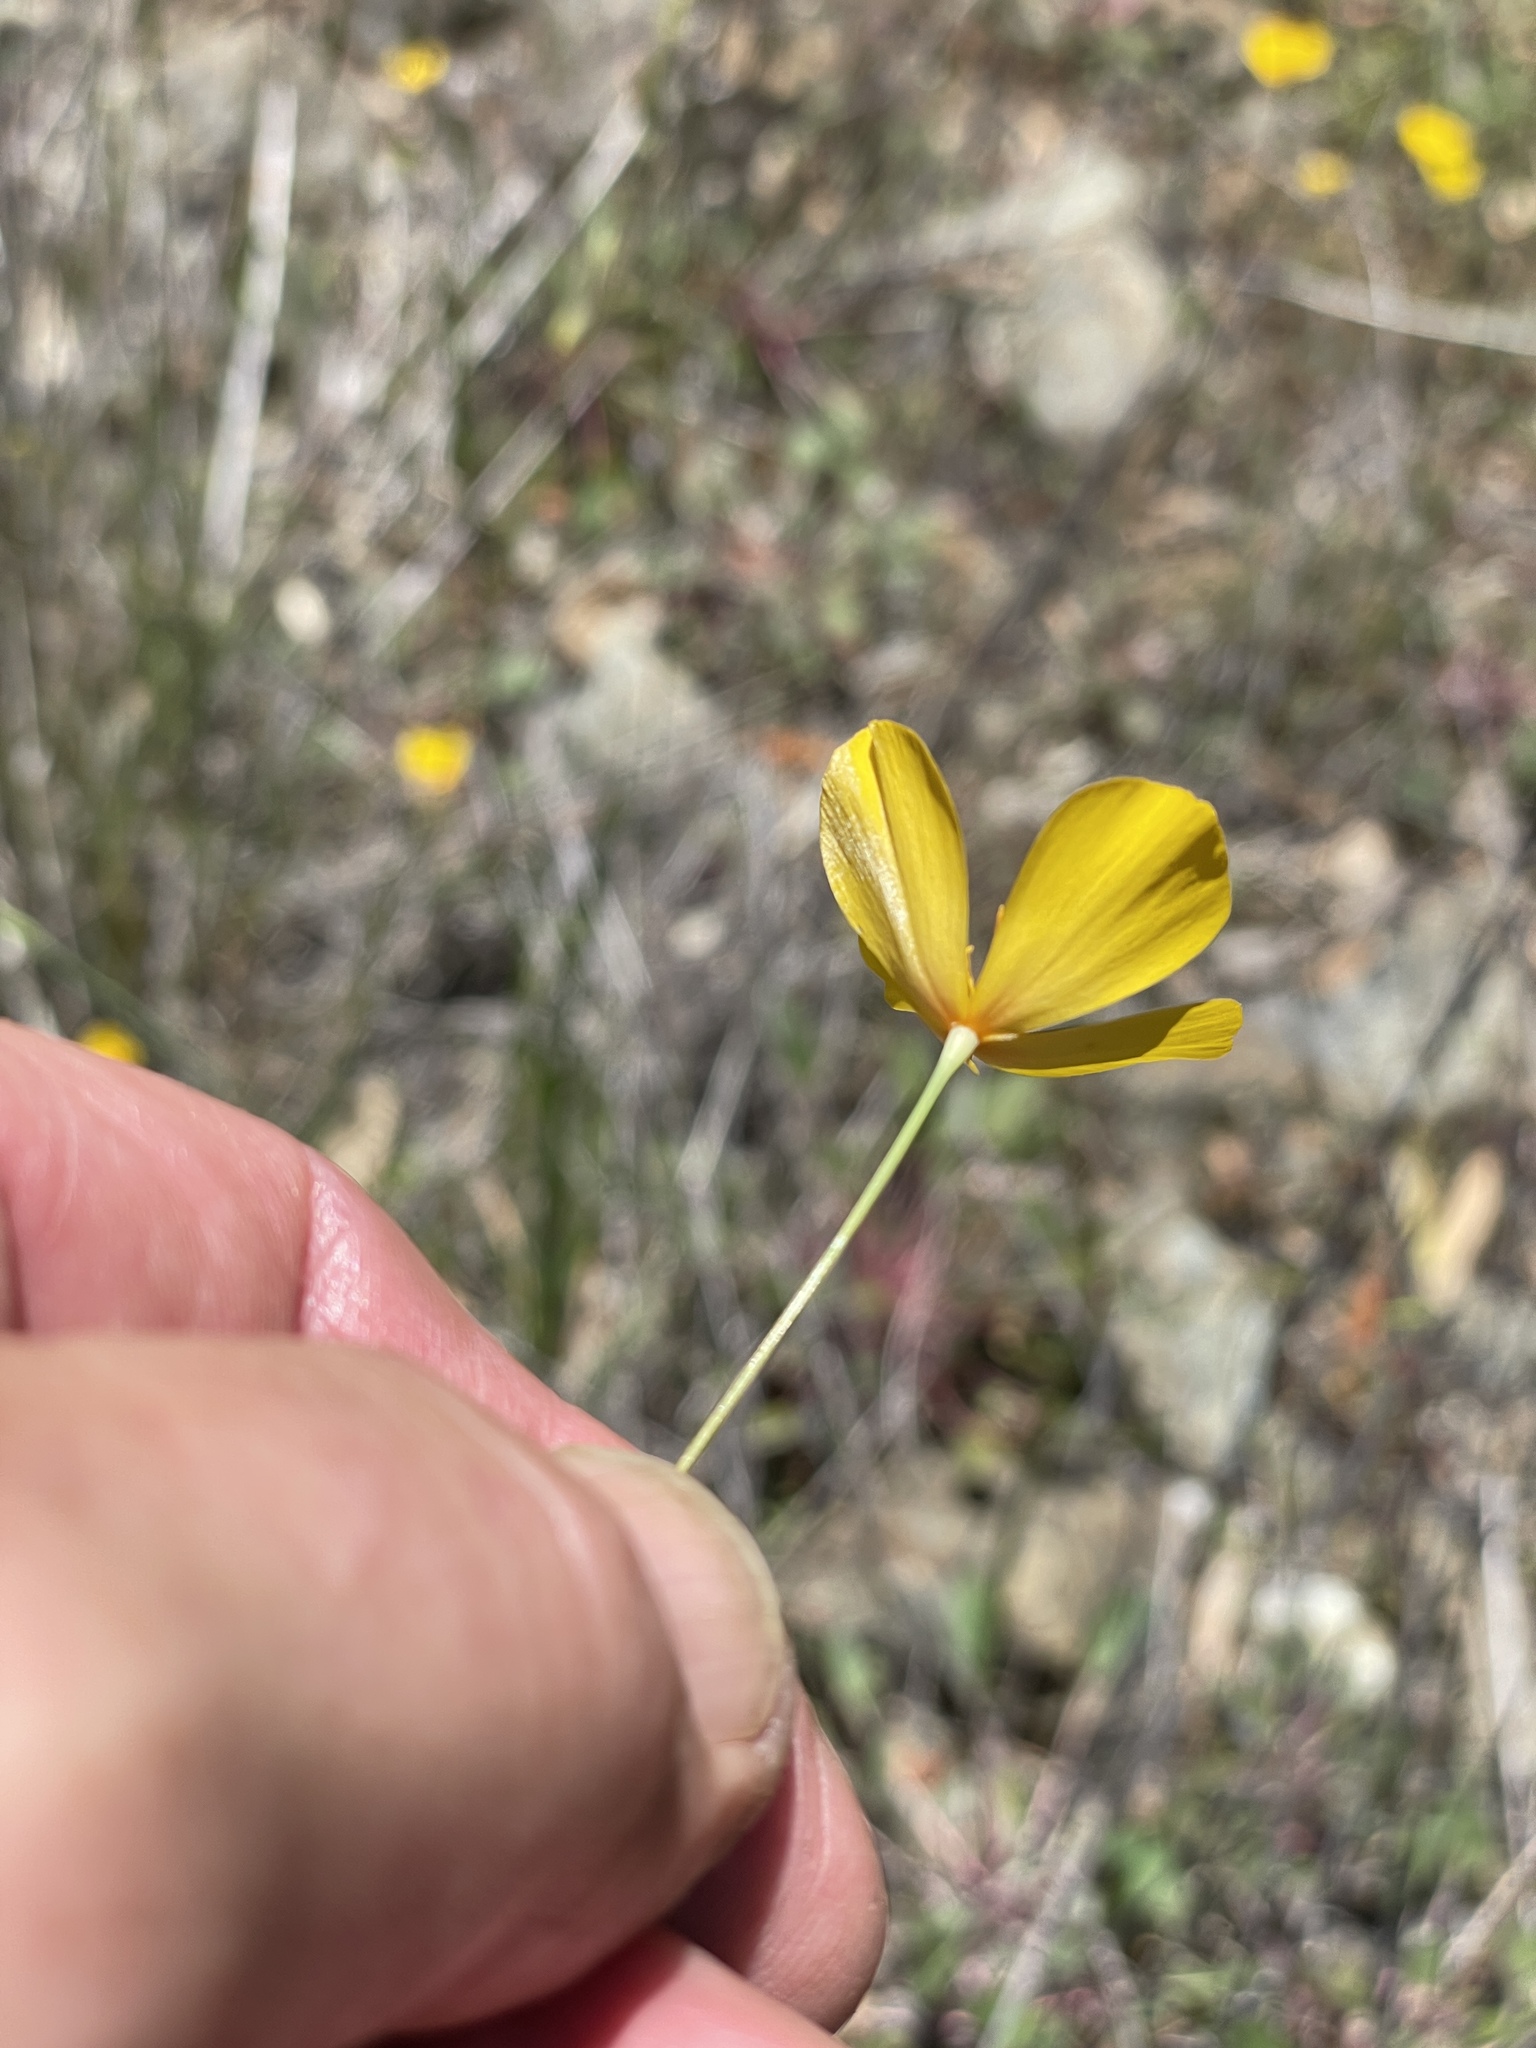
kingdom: Plantae
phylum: Tracheophyta
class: Magnoliopsida
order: Ranunculales
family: Papaveraceae
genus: Eschscholzia
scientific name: Eschscholzia caespitosa
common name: Tufted california-poppy
